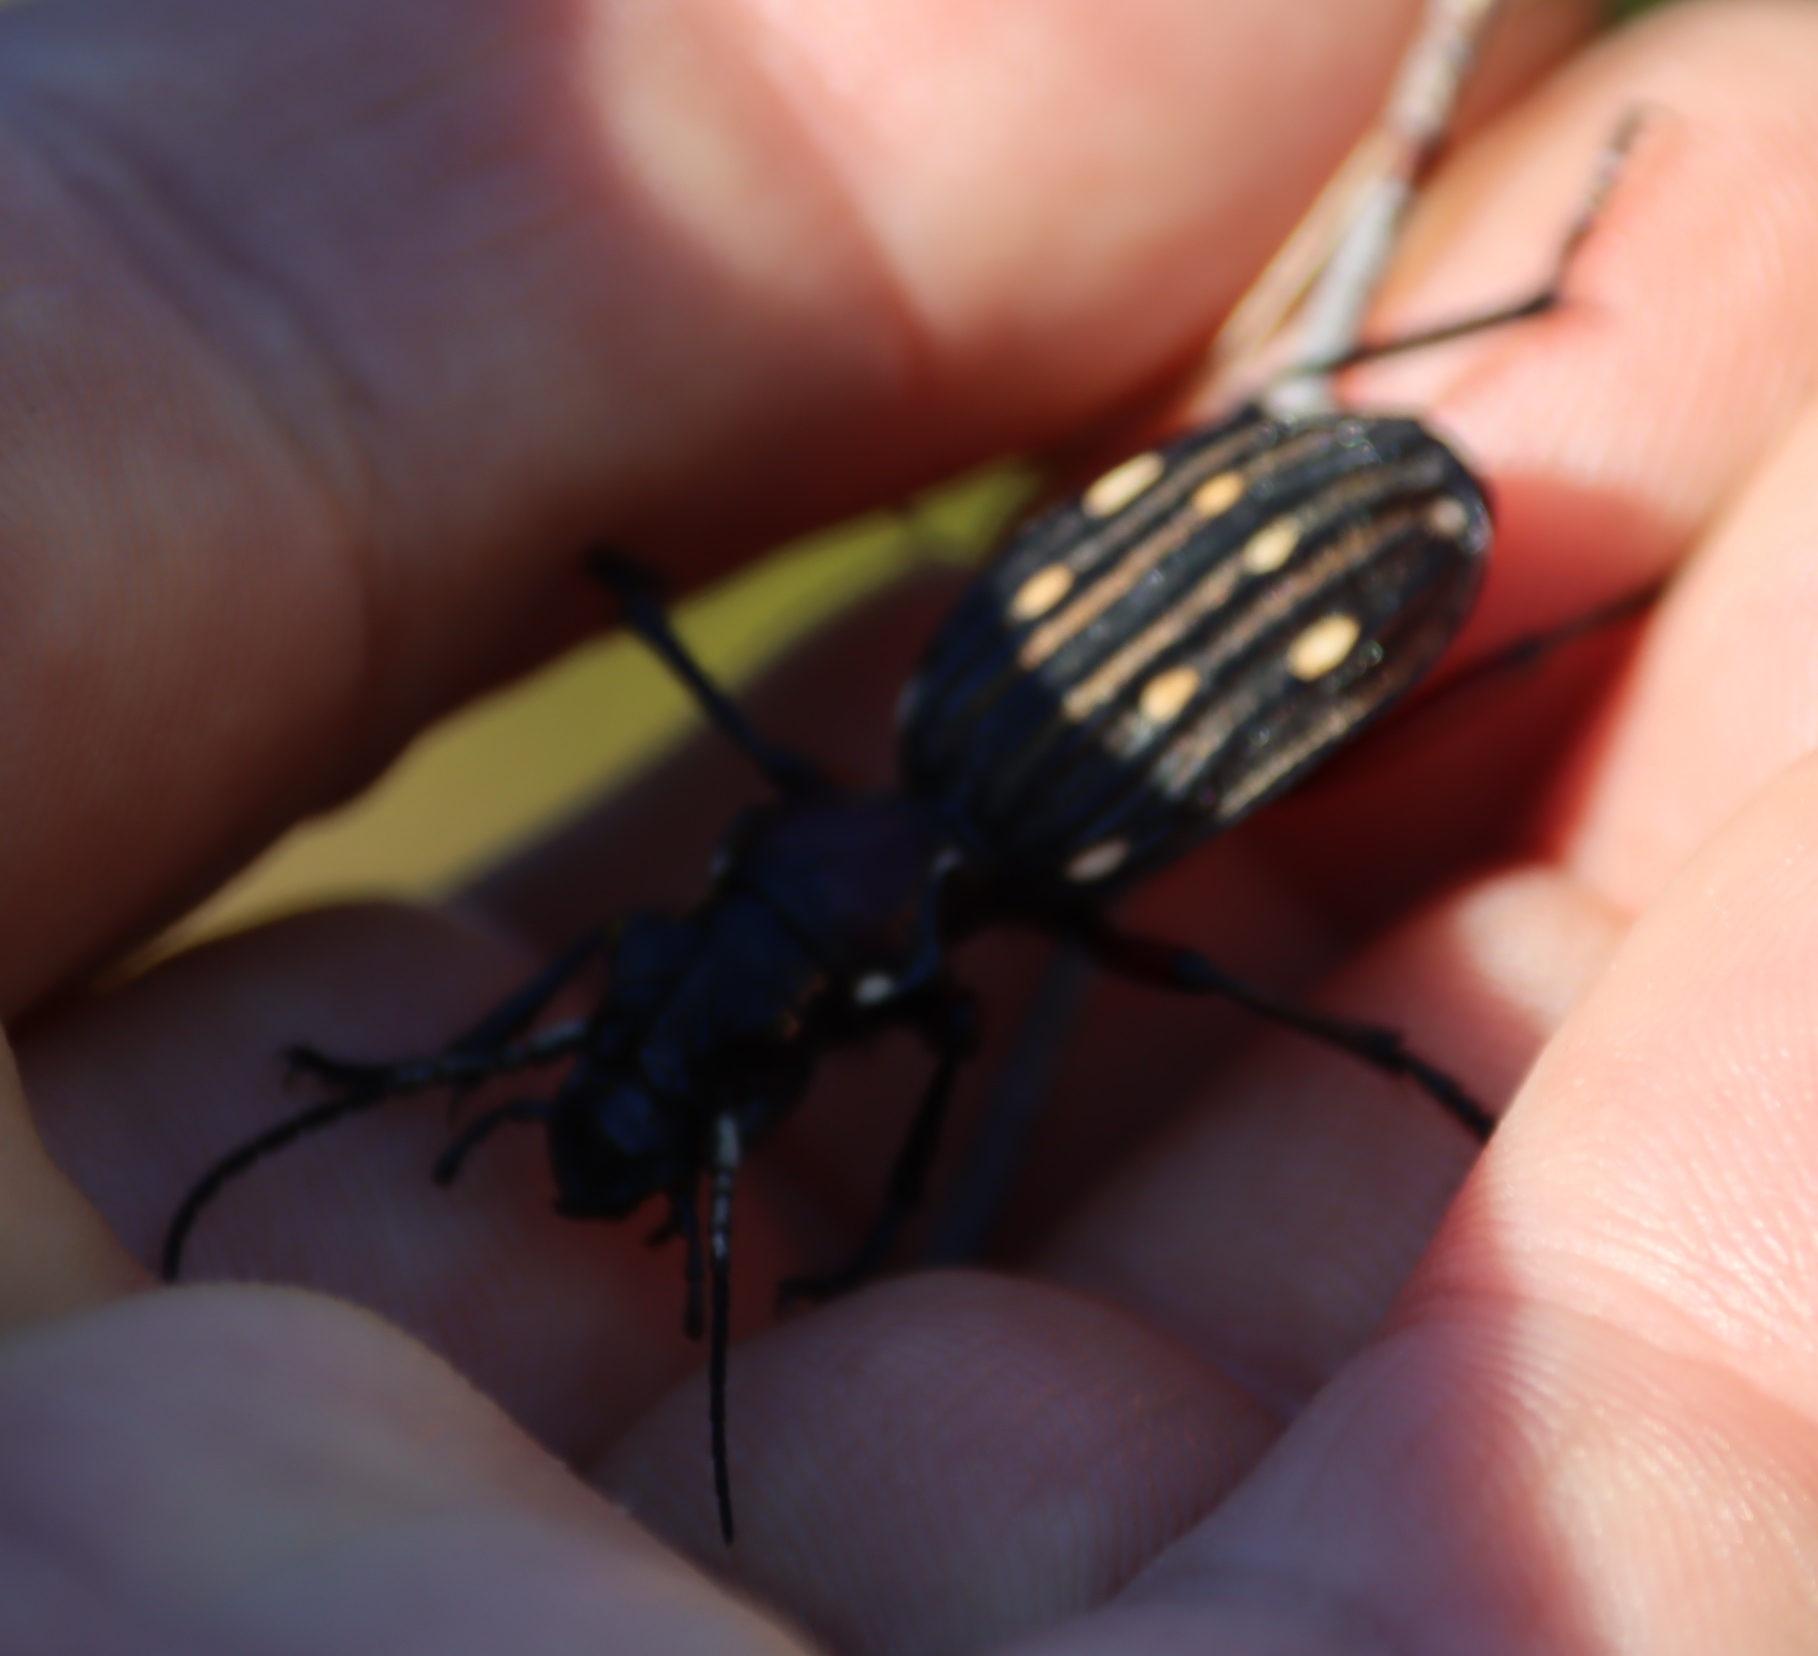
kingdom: Animalia
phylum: Arthropoda
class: Insecta
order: Coleoptera
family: Carabidae
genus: Anthia
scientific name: Anthia decemguttata
